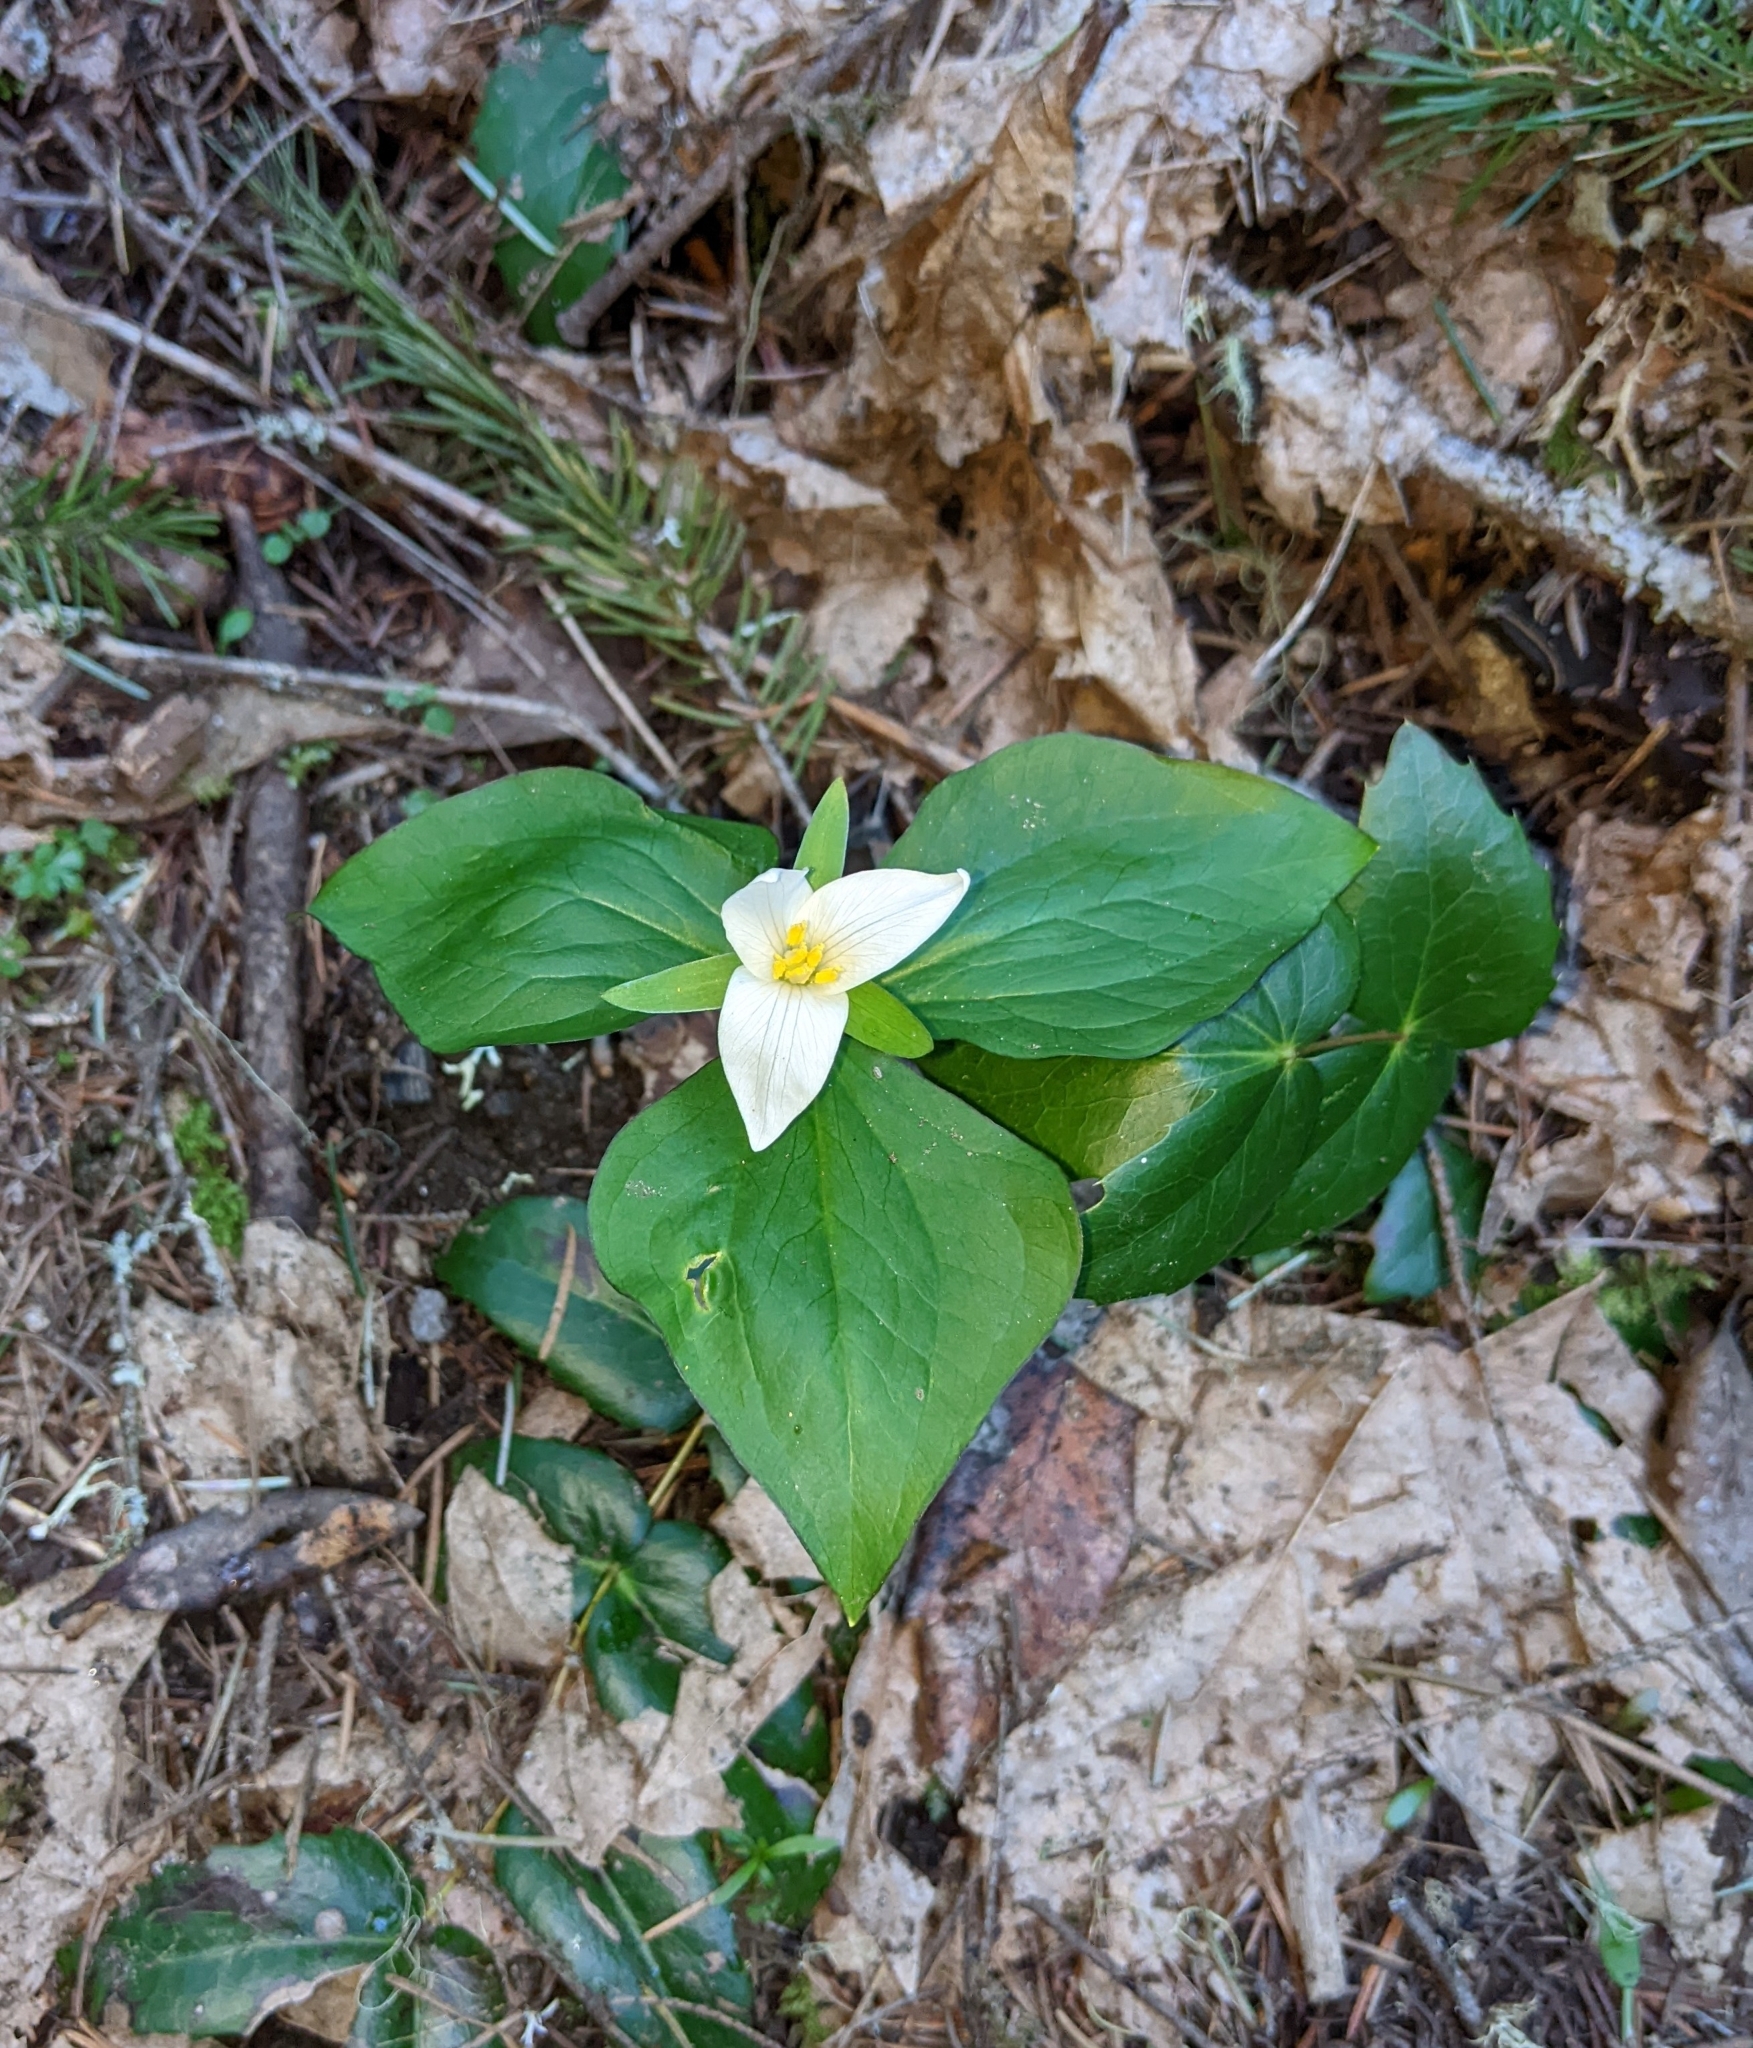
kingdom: Plantae
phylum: Tracheophyta
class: Liliopsida
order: Liliales
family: Melanthiaceae
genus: Trillium
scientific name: Trillium ovatum
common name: Pacific trillium
